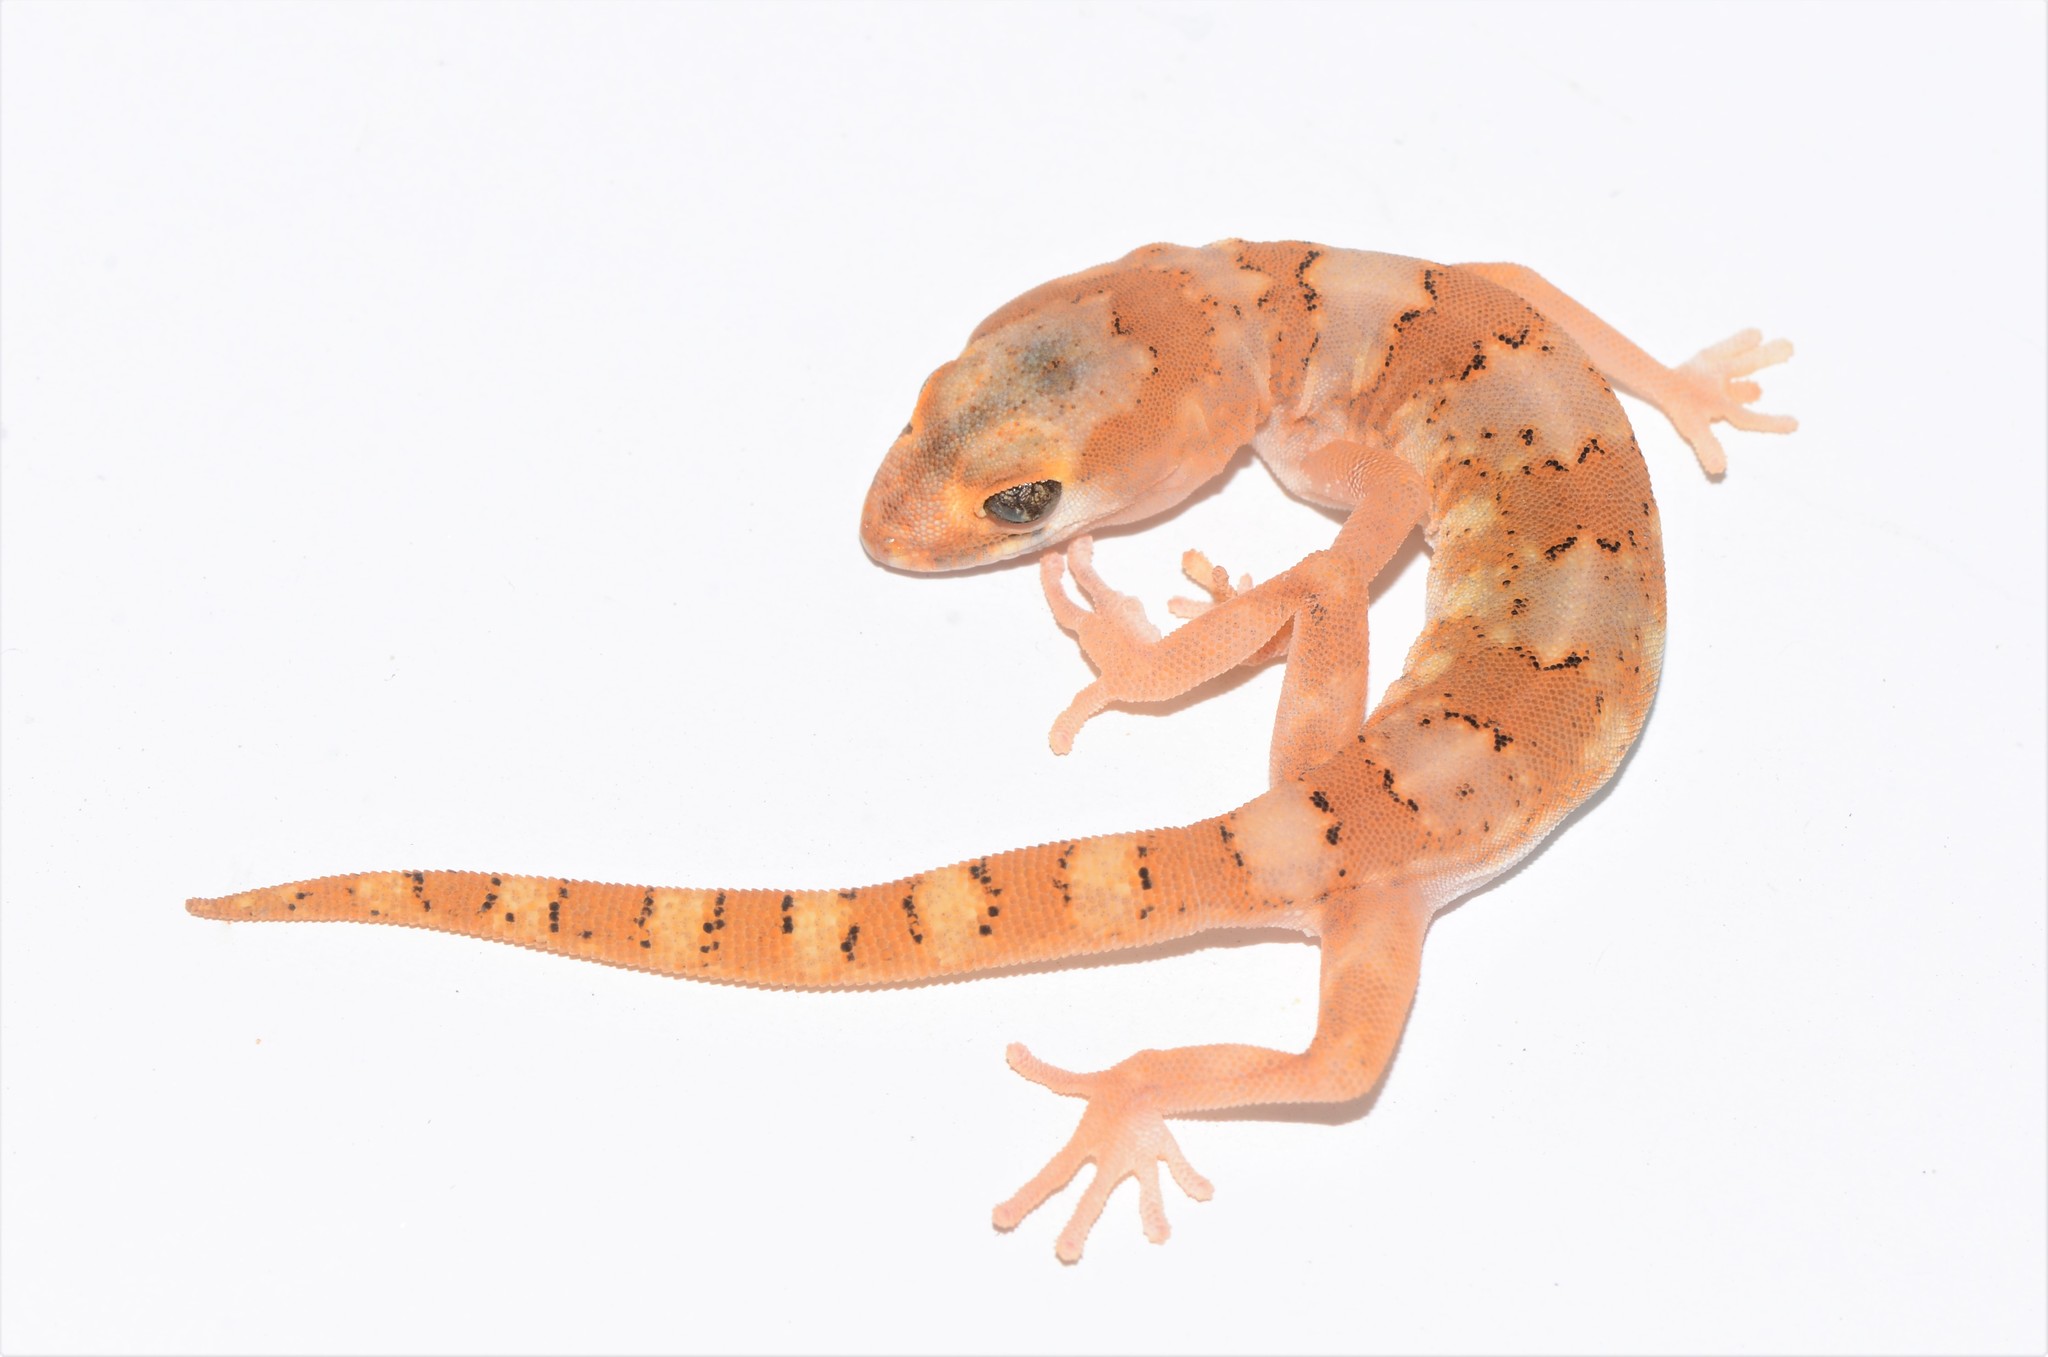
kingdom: Animalia
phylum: Chordata
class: Squamata
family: Gekkonidae
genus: Pachydactylus
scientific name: Pachydactylus latirostris
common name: Quartz gecko
